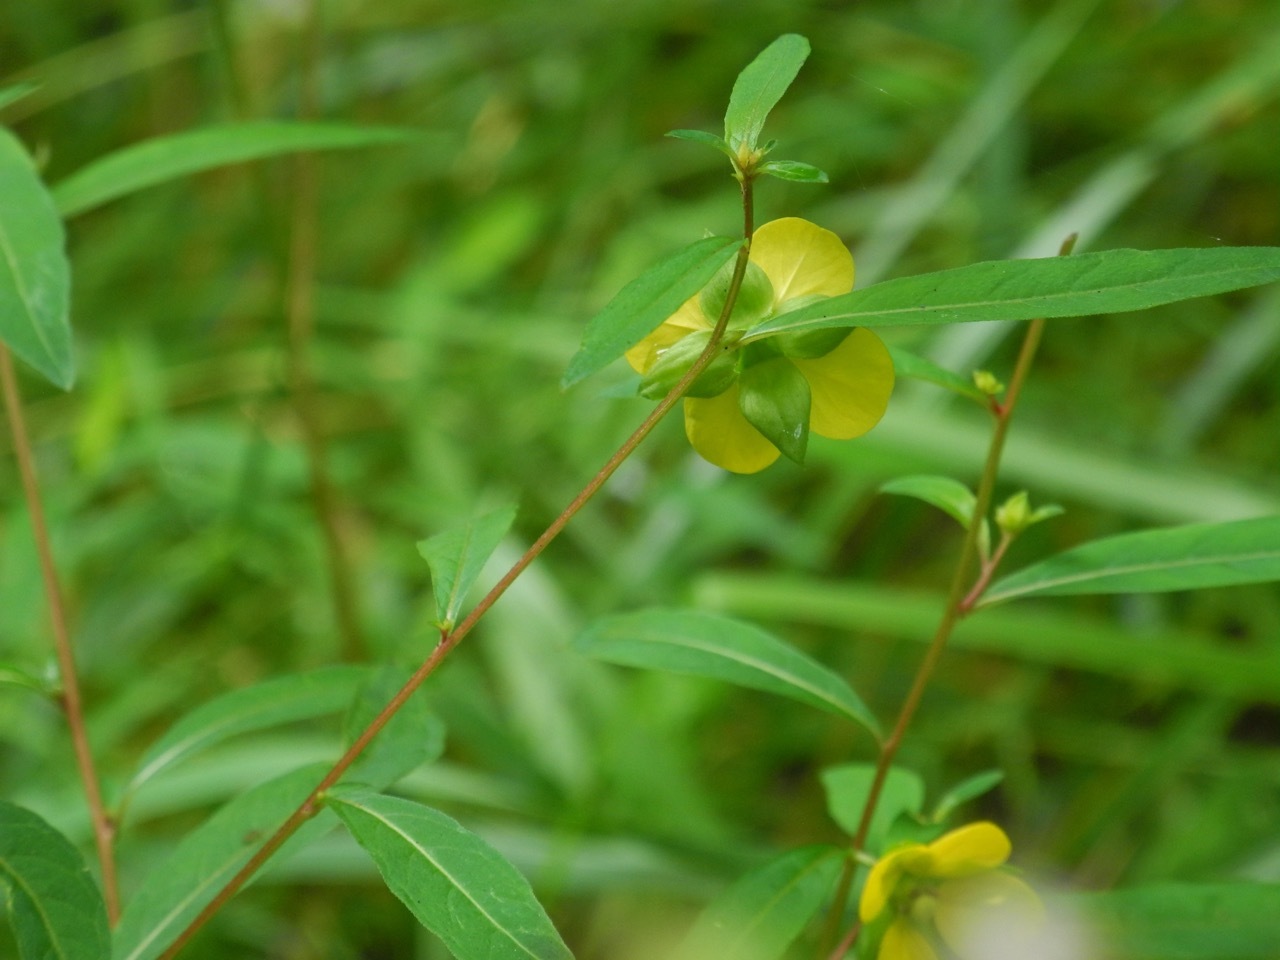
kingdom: Plantae
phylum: Tracheophyta
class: Magnoliopsida
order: Myrtales
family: Onagraceae
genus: Ludwigia
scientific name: Ludwigia alternifolia
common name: Rattlebox
